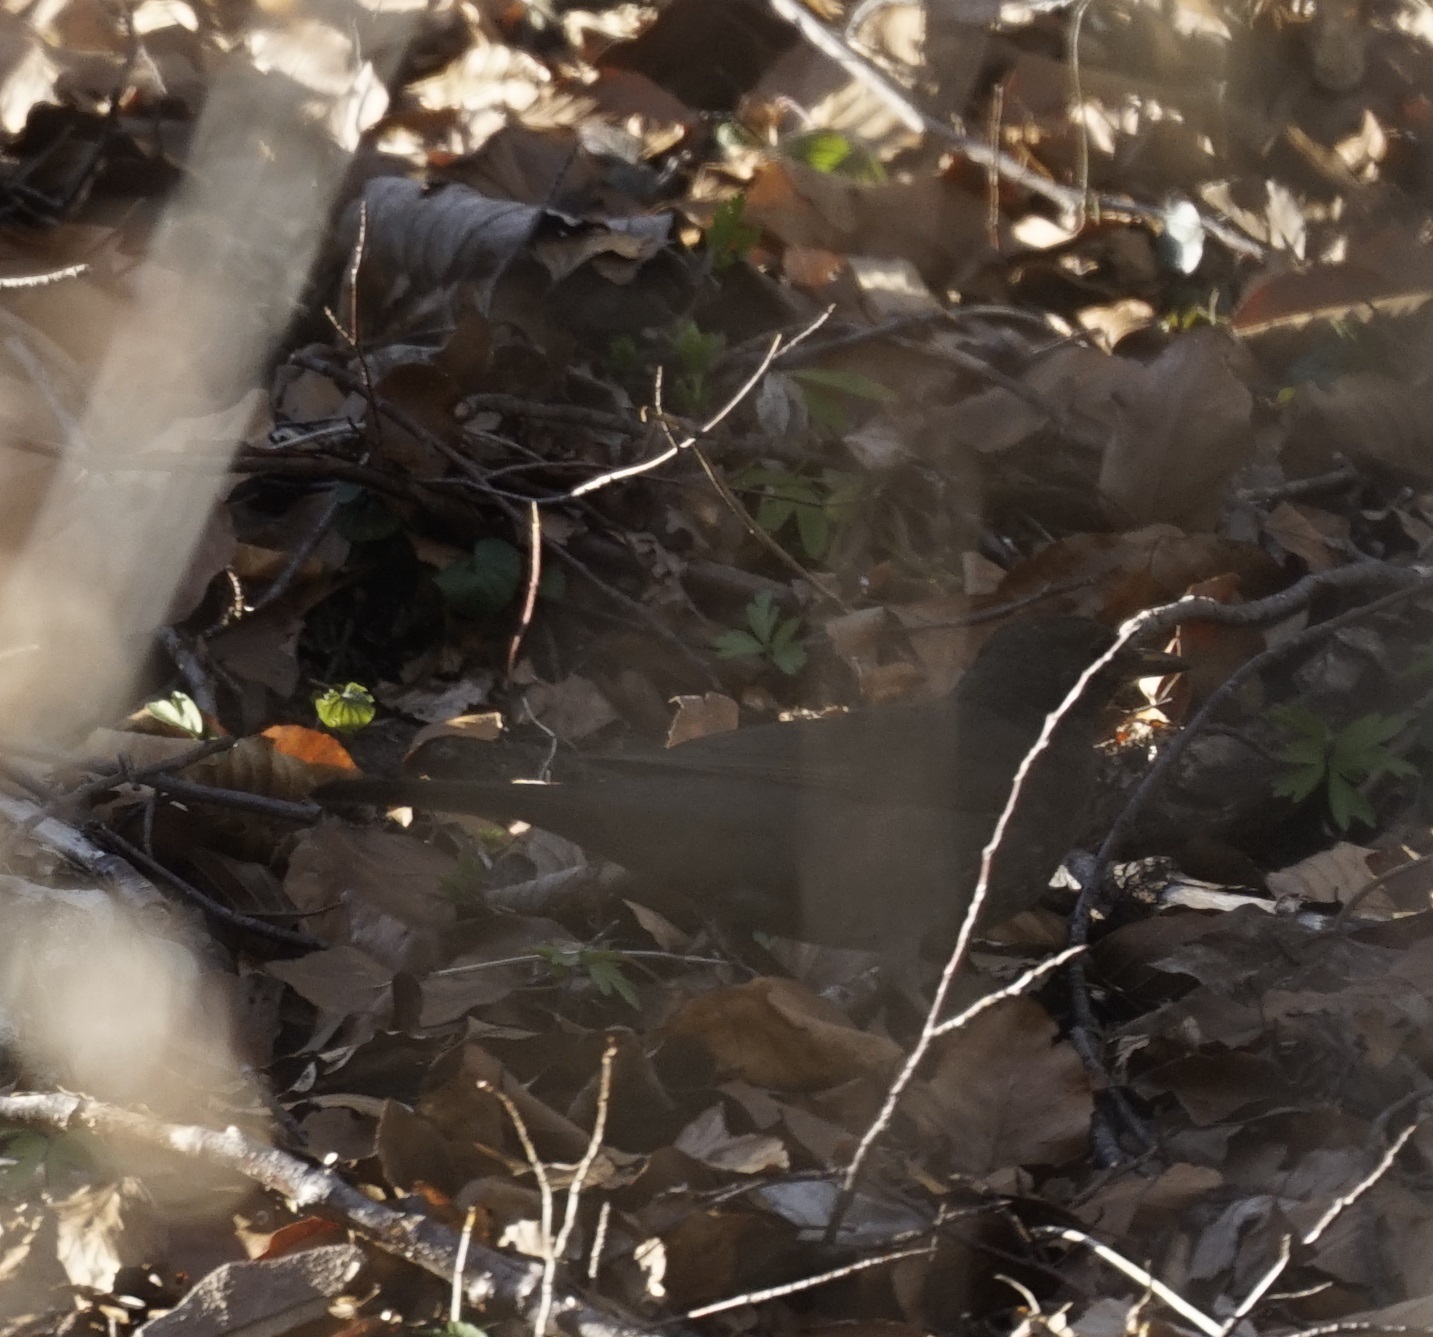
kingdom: Animalia
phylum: Chordata
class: Aves
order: Passeriformes
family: Turdidae
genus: Turdus
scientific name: Turdus merula
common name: Common blackbird
